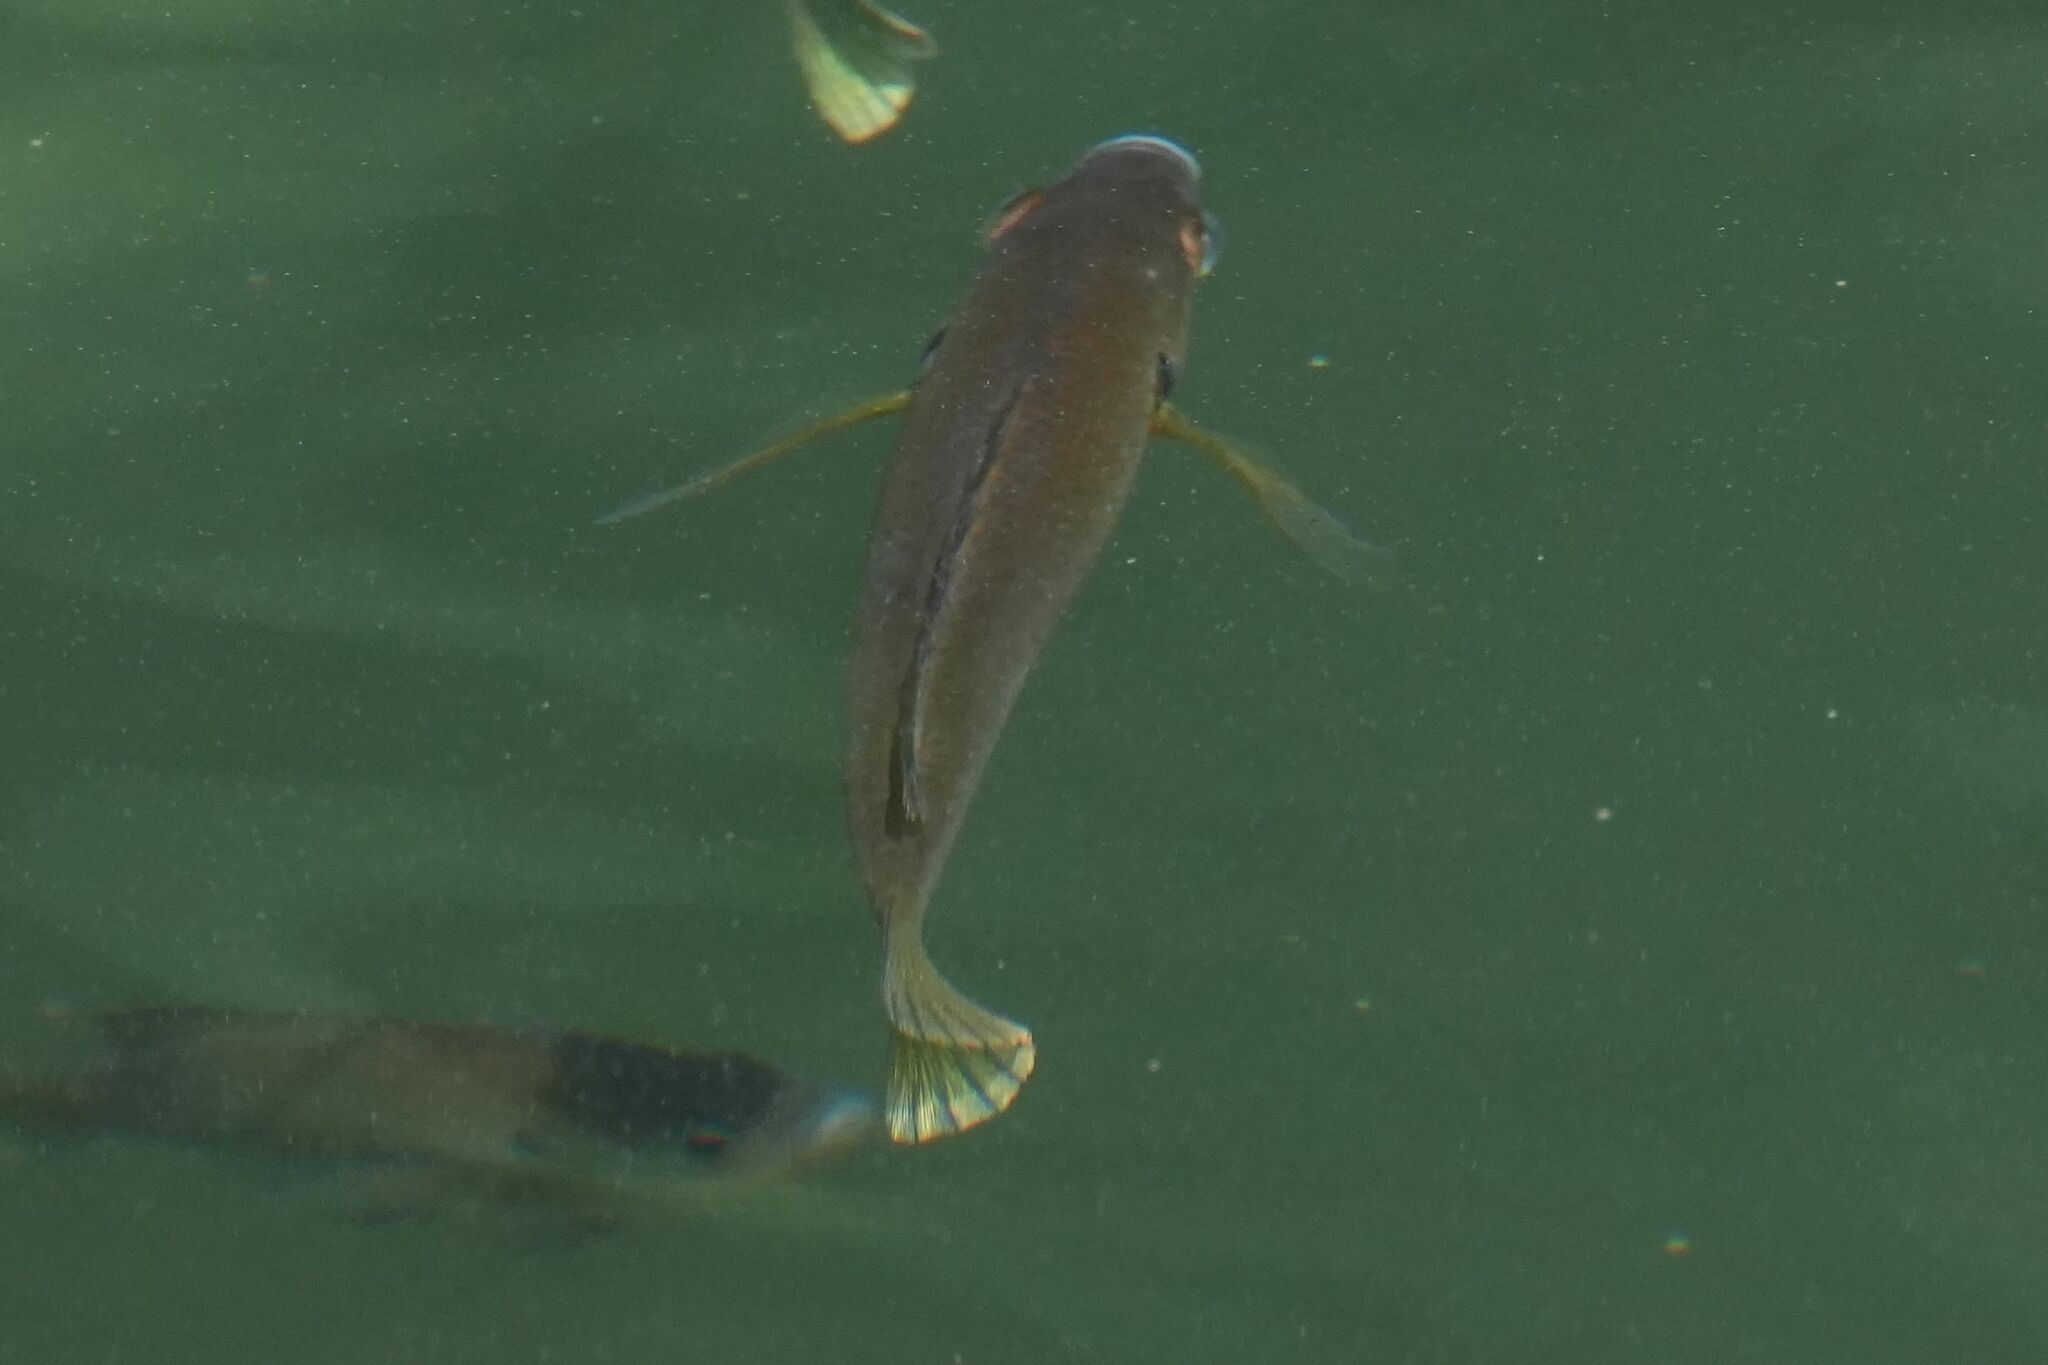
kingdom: Animalia
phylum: Chordata
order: Perciformes
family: Centrarchidae
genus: Lepomis
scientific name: Lepomis macrochirus
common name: Bluegill
